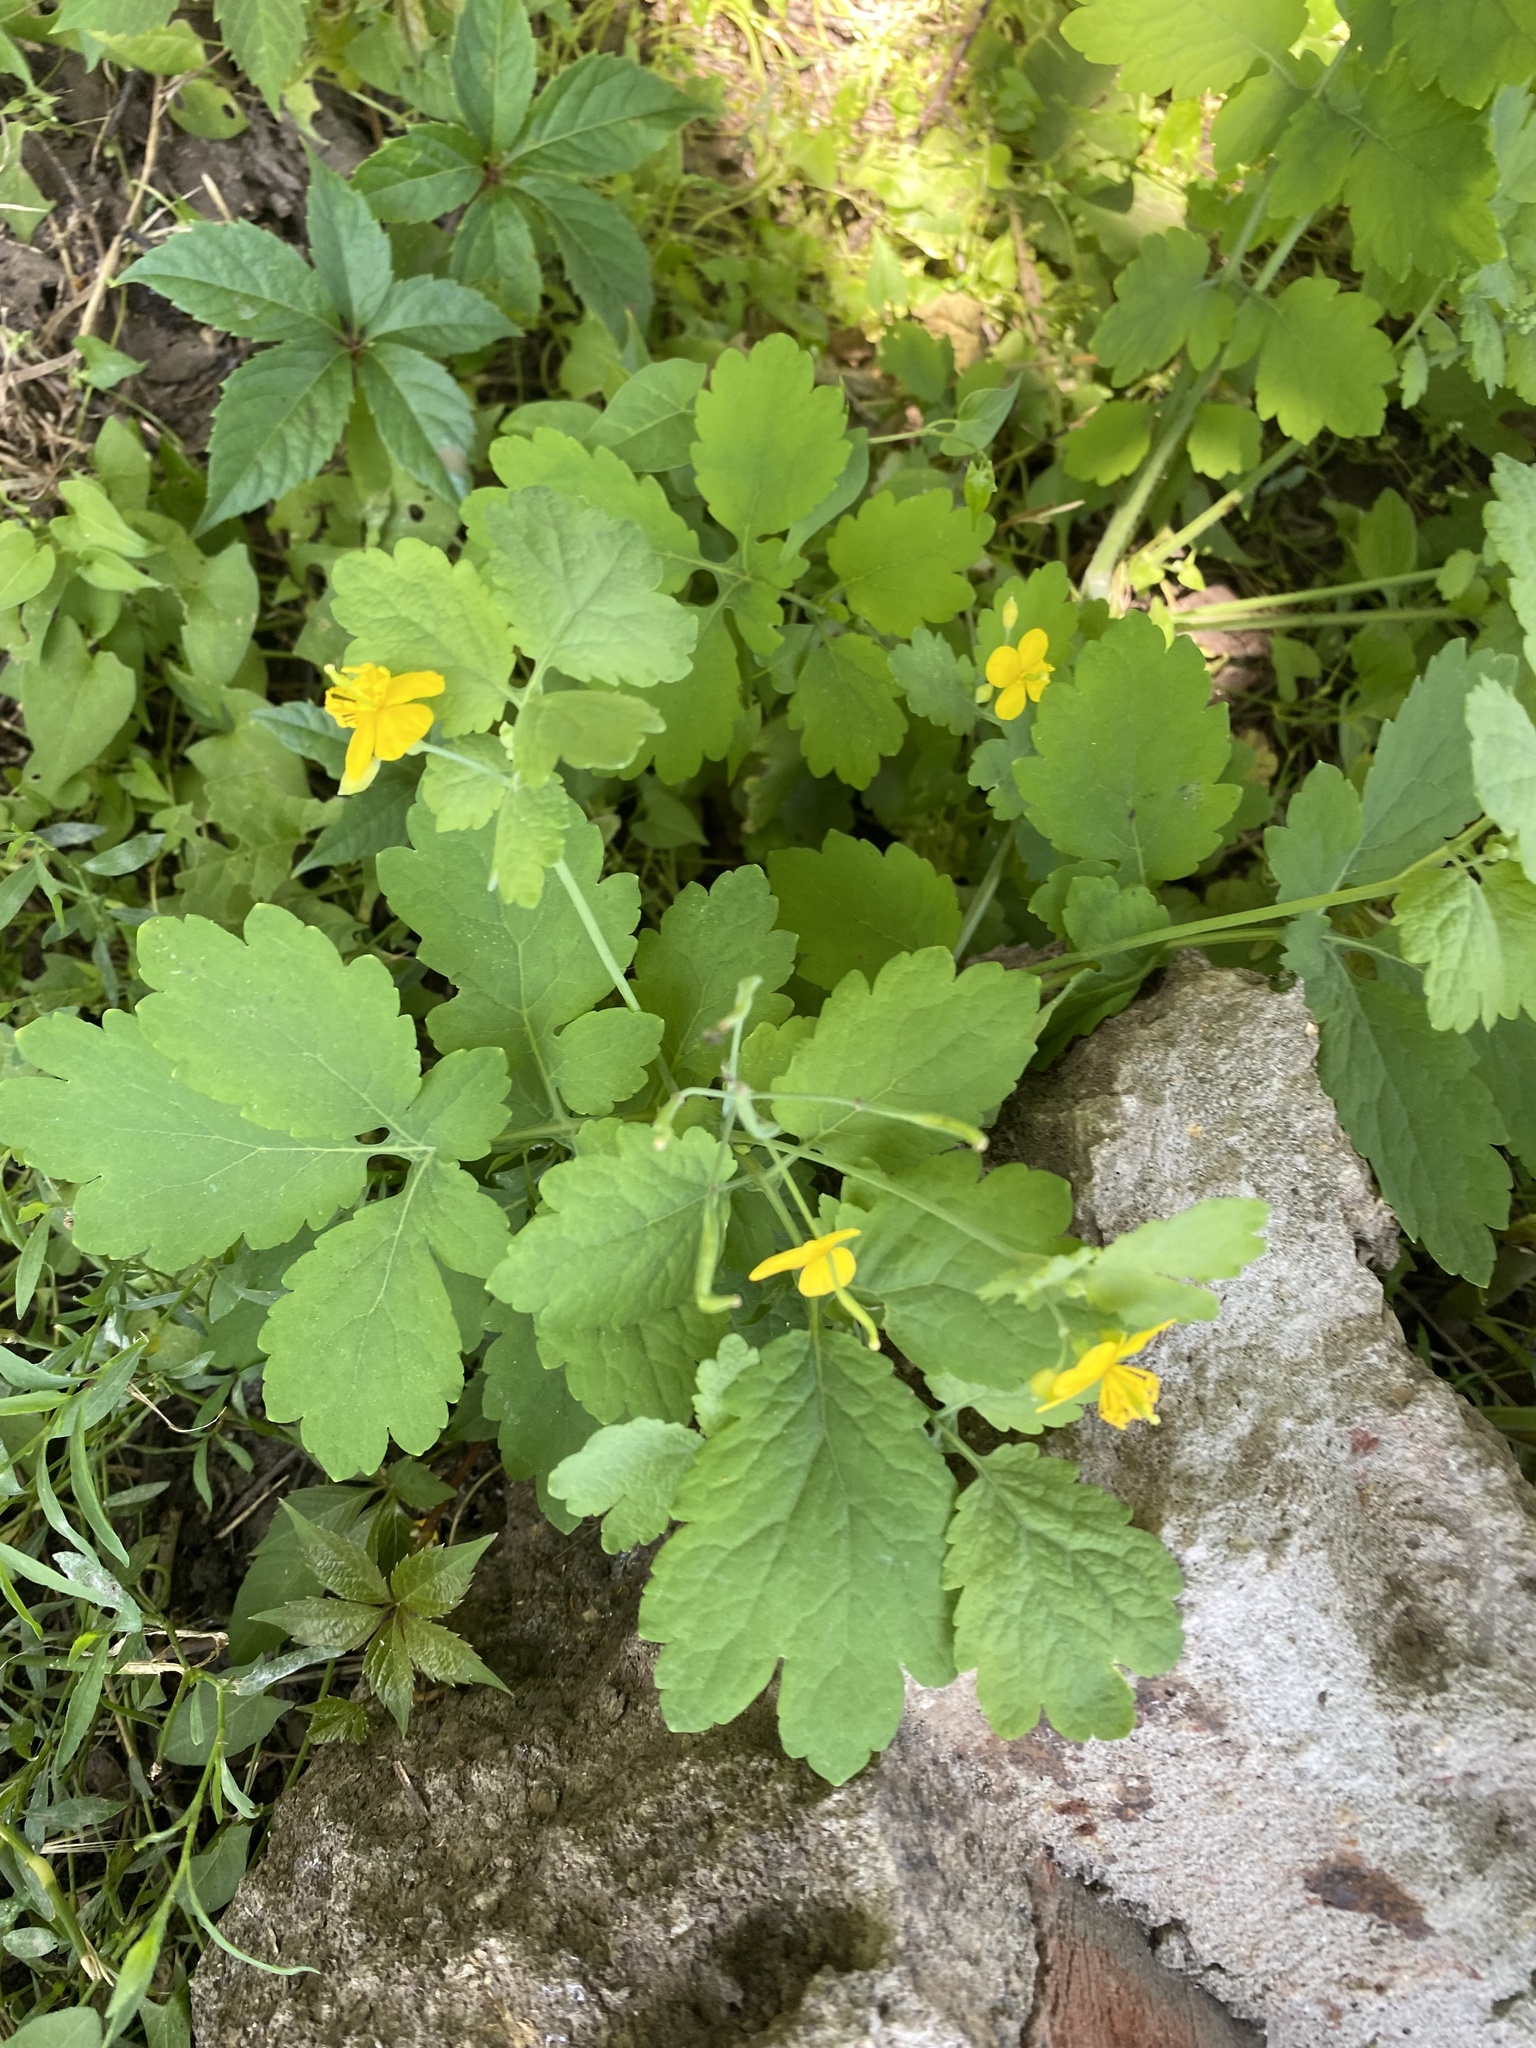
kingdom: Plantae
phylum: Tracheophyta
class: Magnoliopsida
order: Ranunculales
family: Papaveraceae
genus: Chelidonium
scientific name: Chelidonium majus
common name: Greater celandine
